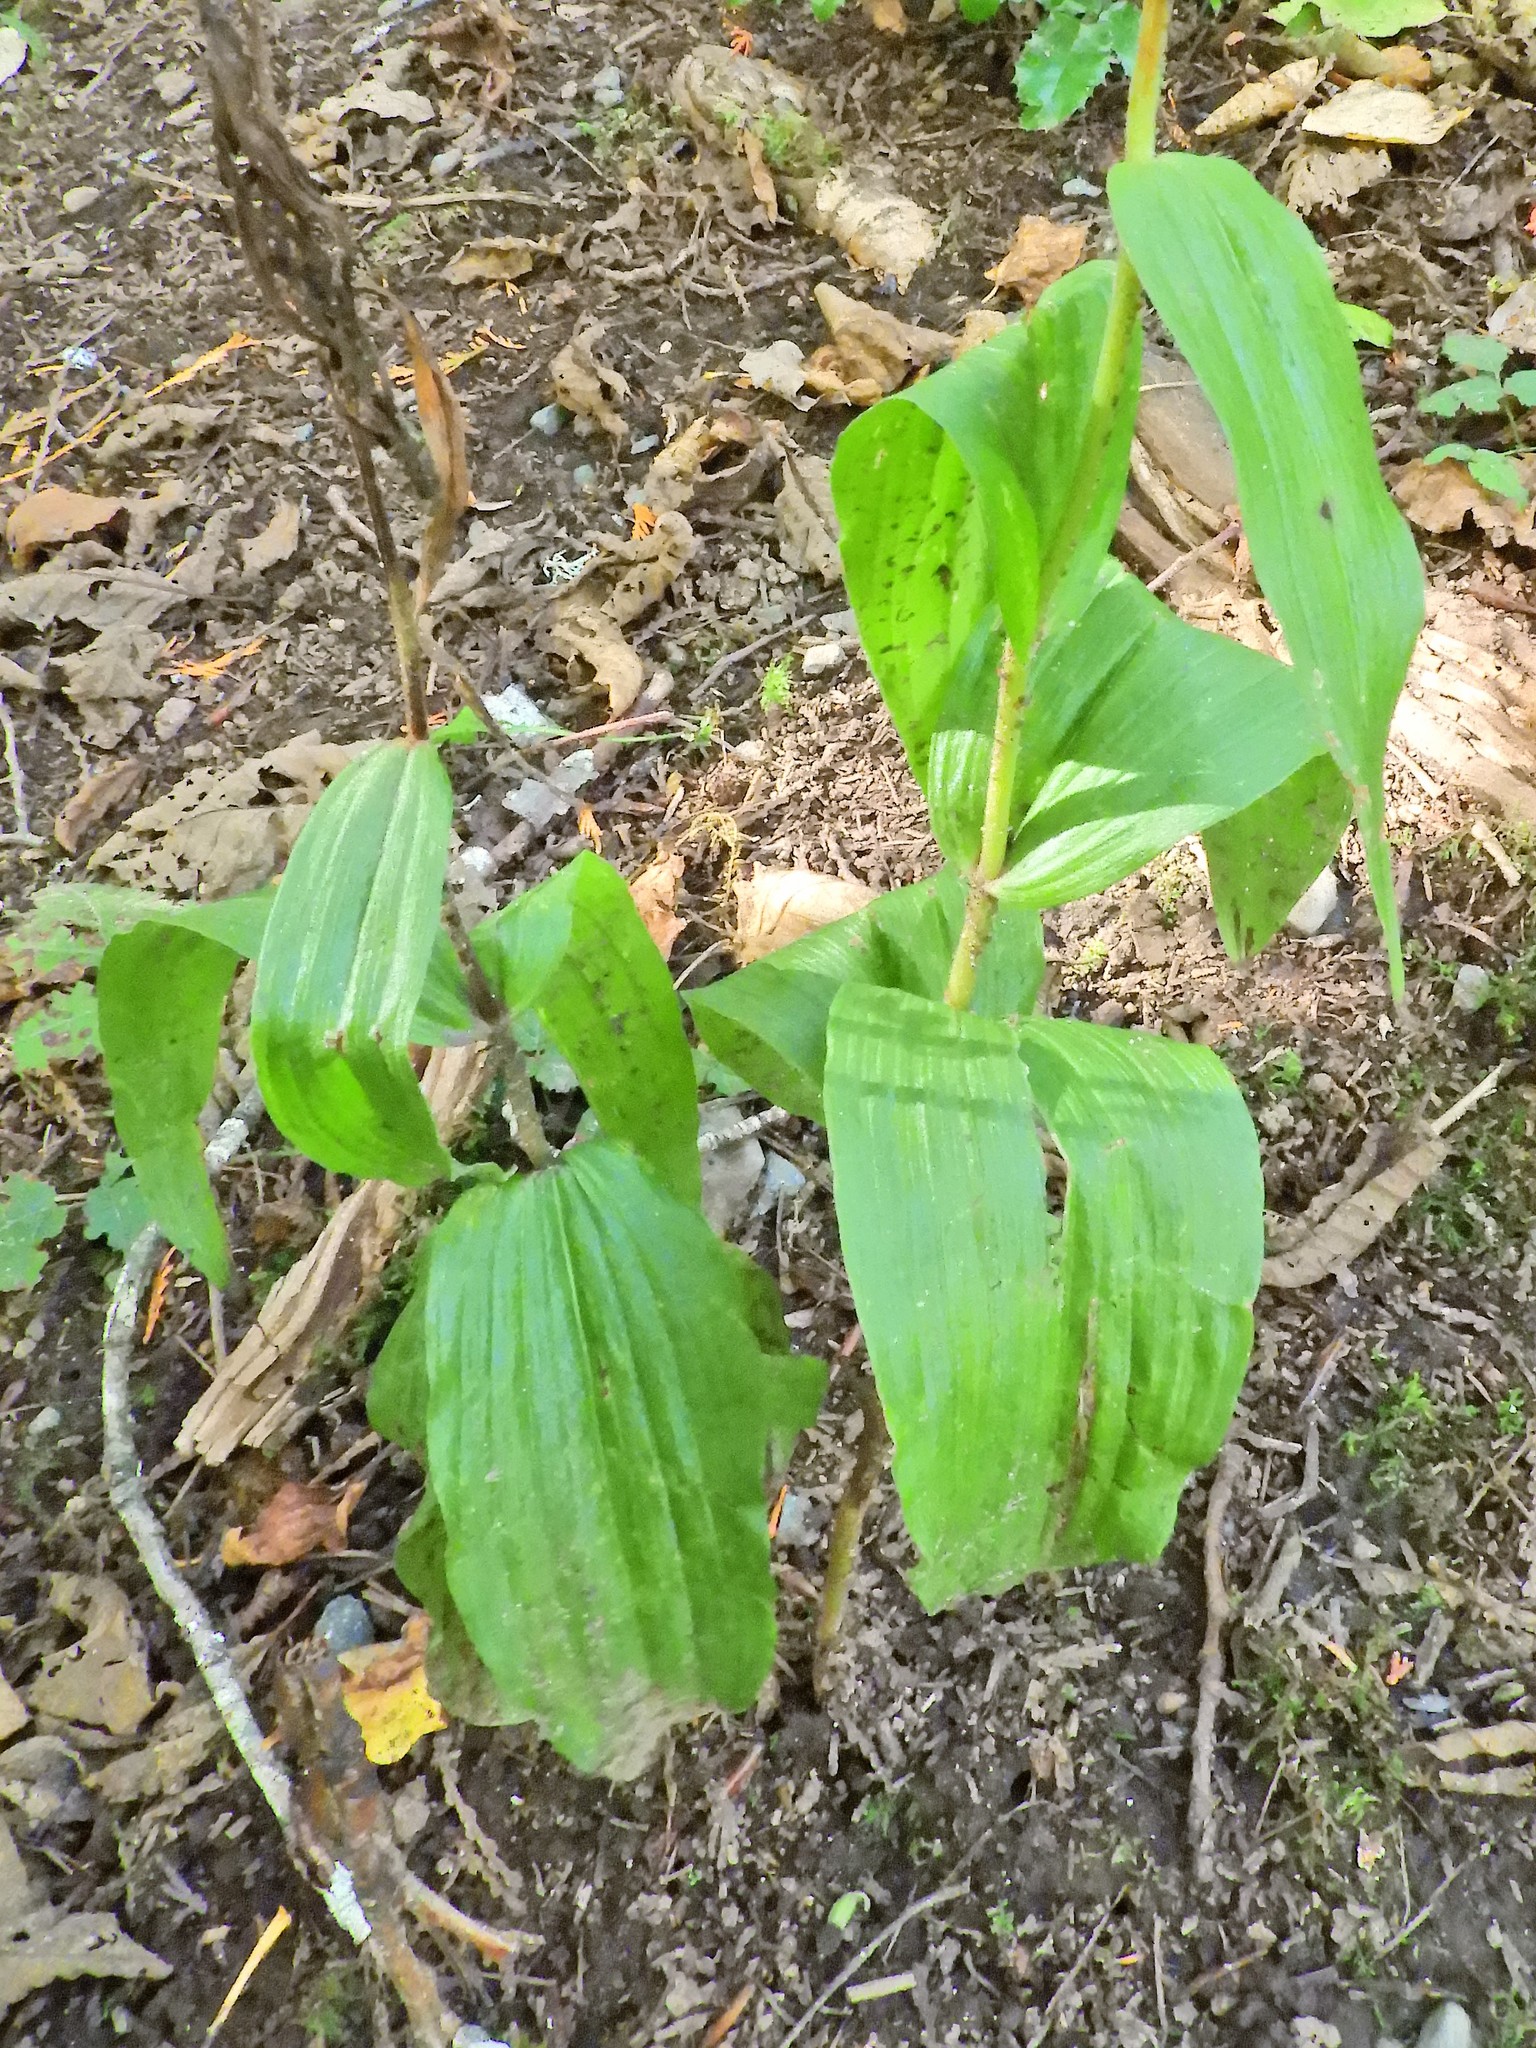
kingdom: Plantae
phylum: Tracheophyta
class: Liliopsida
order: Asparagales
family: Orchidaceae
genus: Epipactis
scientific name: Epipactis helleborine
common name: Broad-leaved helleborine
